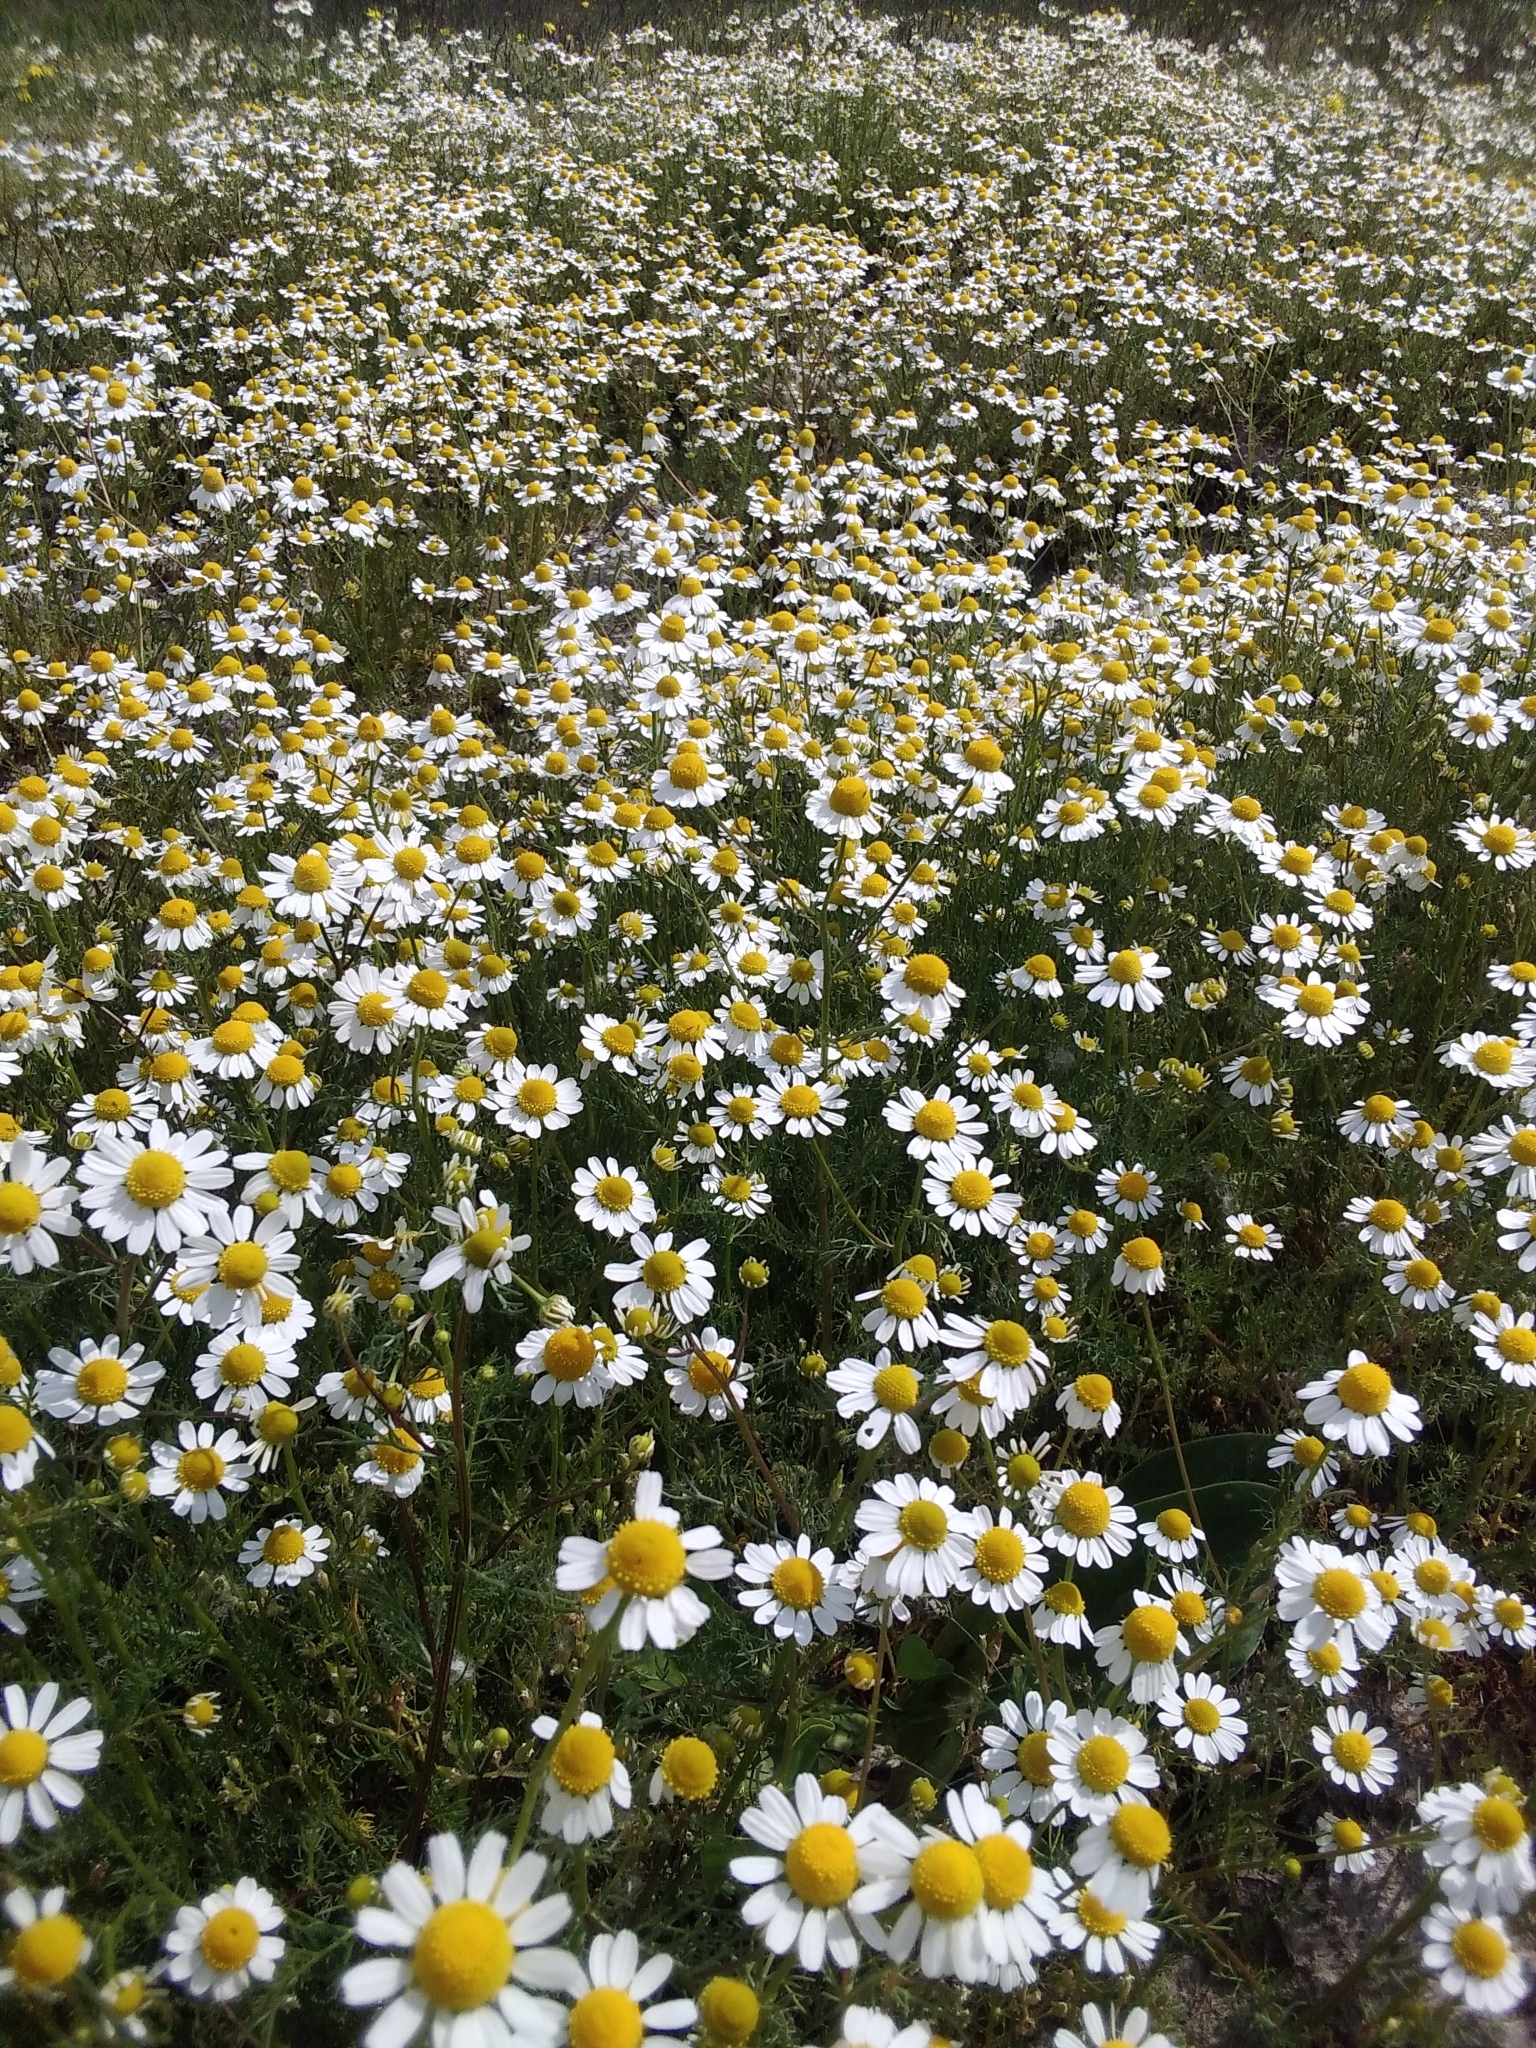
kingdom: Plantae
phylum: Tracheophyta
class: Magnoliopsida
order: Asterales
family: Asteraceae
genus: Matricaria
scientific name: Matricaria chamomilla
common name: Scented mayweed
